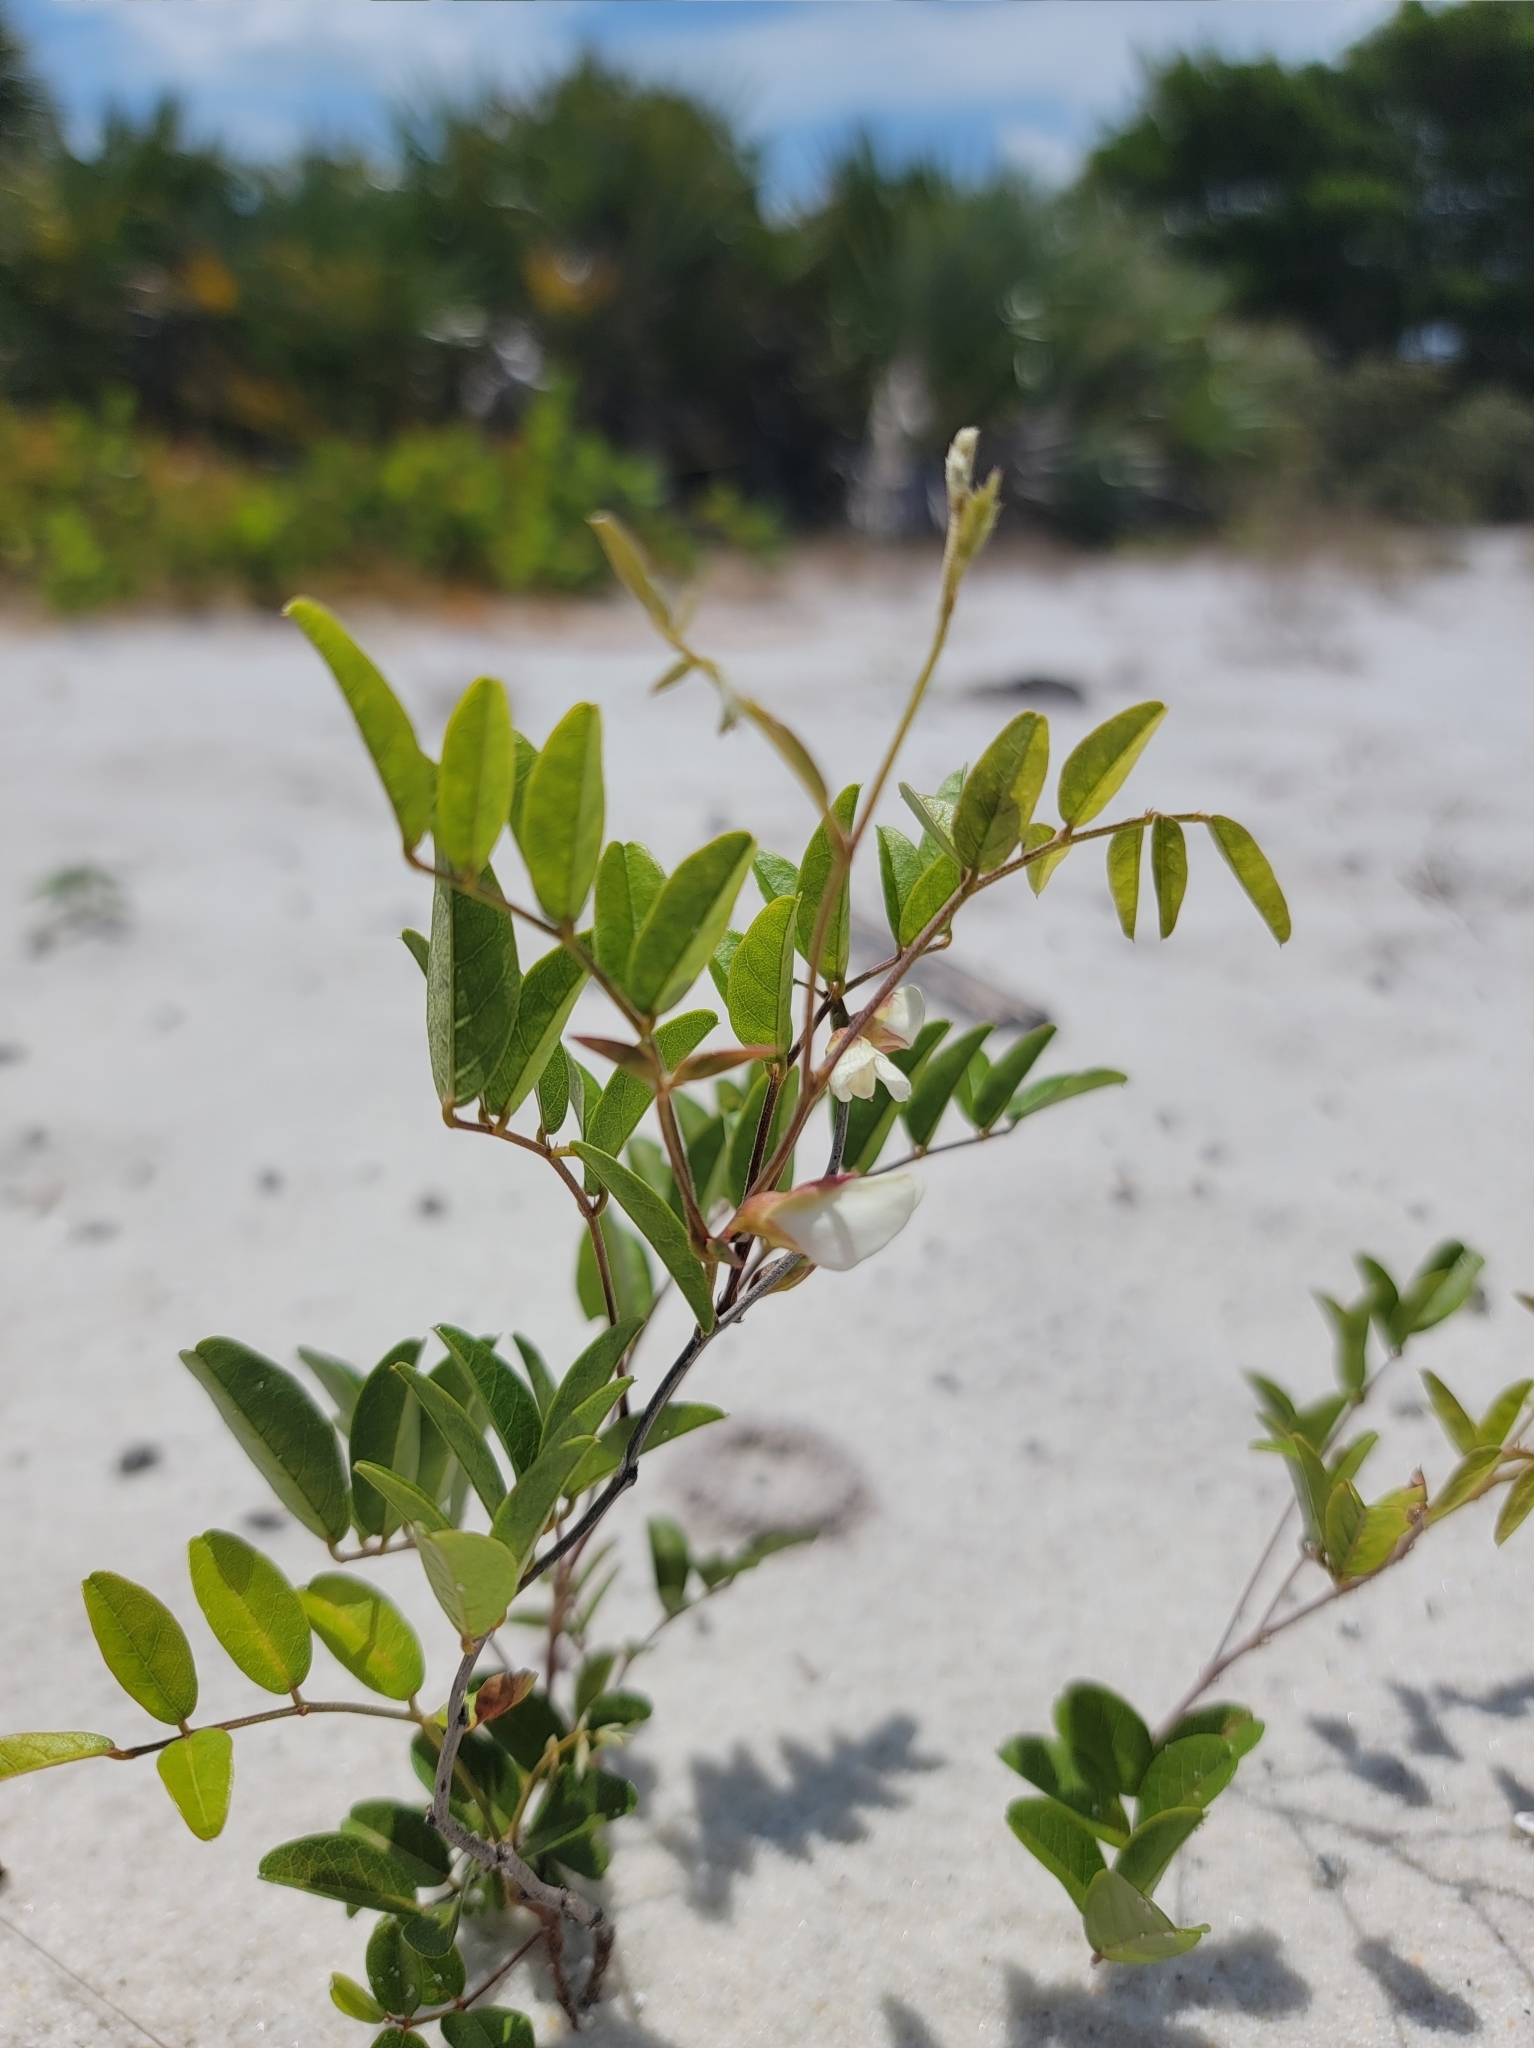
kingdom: Plantae
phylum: Tracheophyta
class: Magnoliopsida
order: Fabales
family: Fabaceae
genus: Galactia
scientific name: Galactia elliottii
